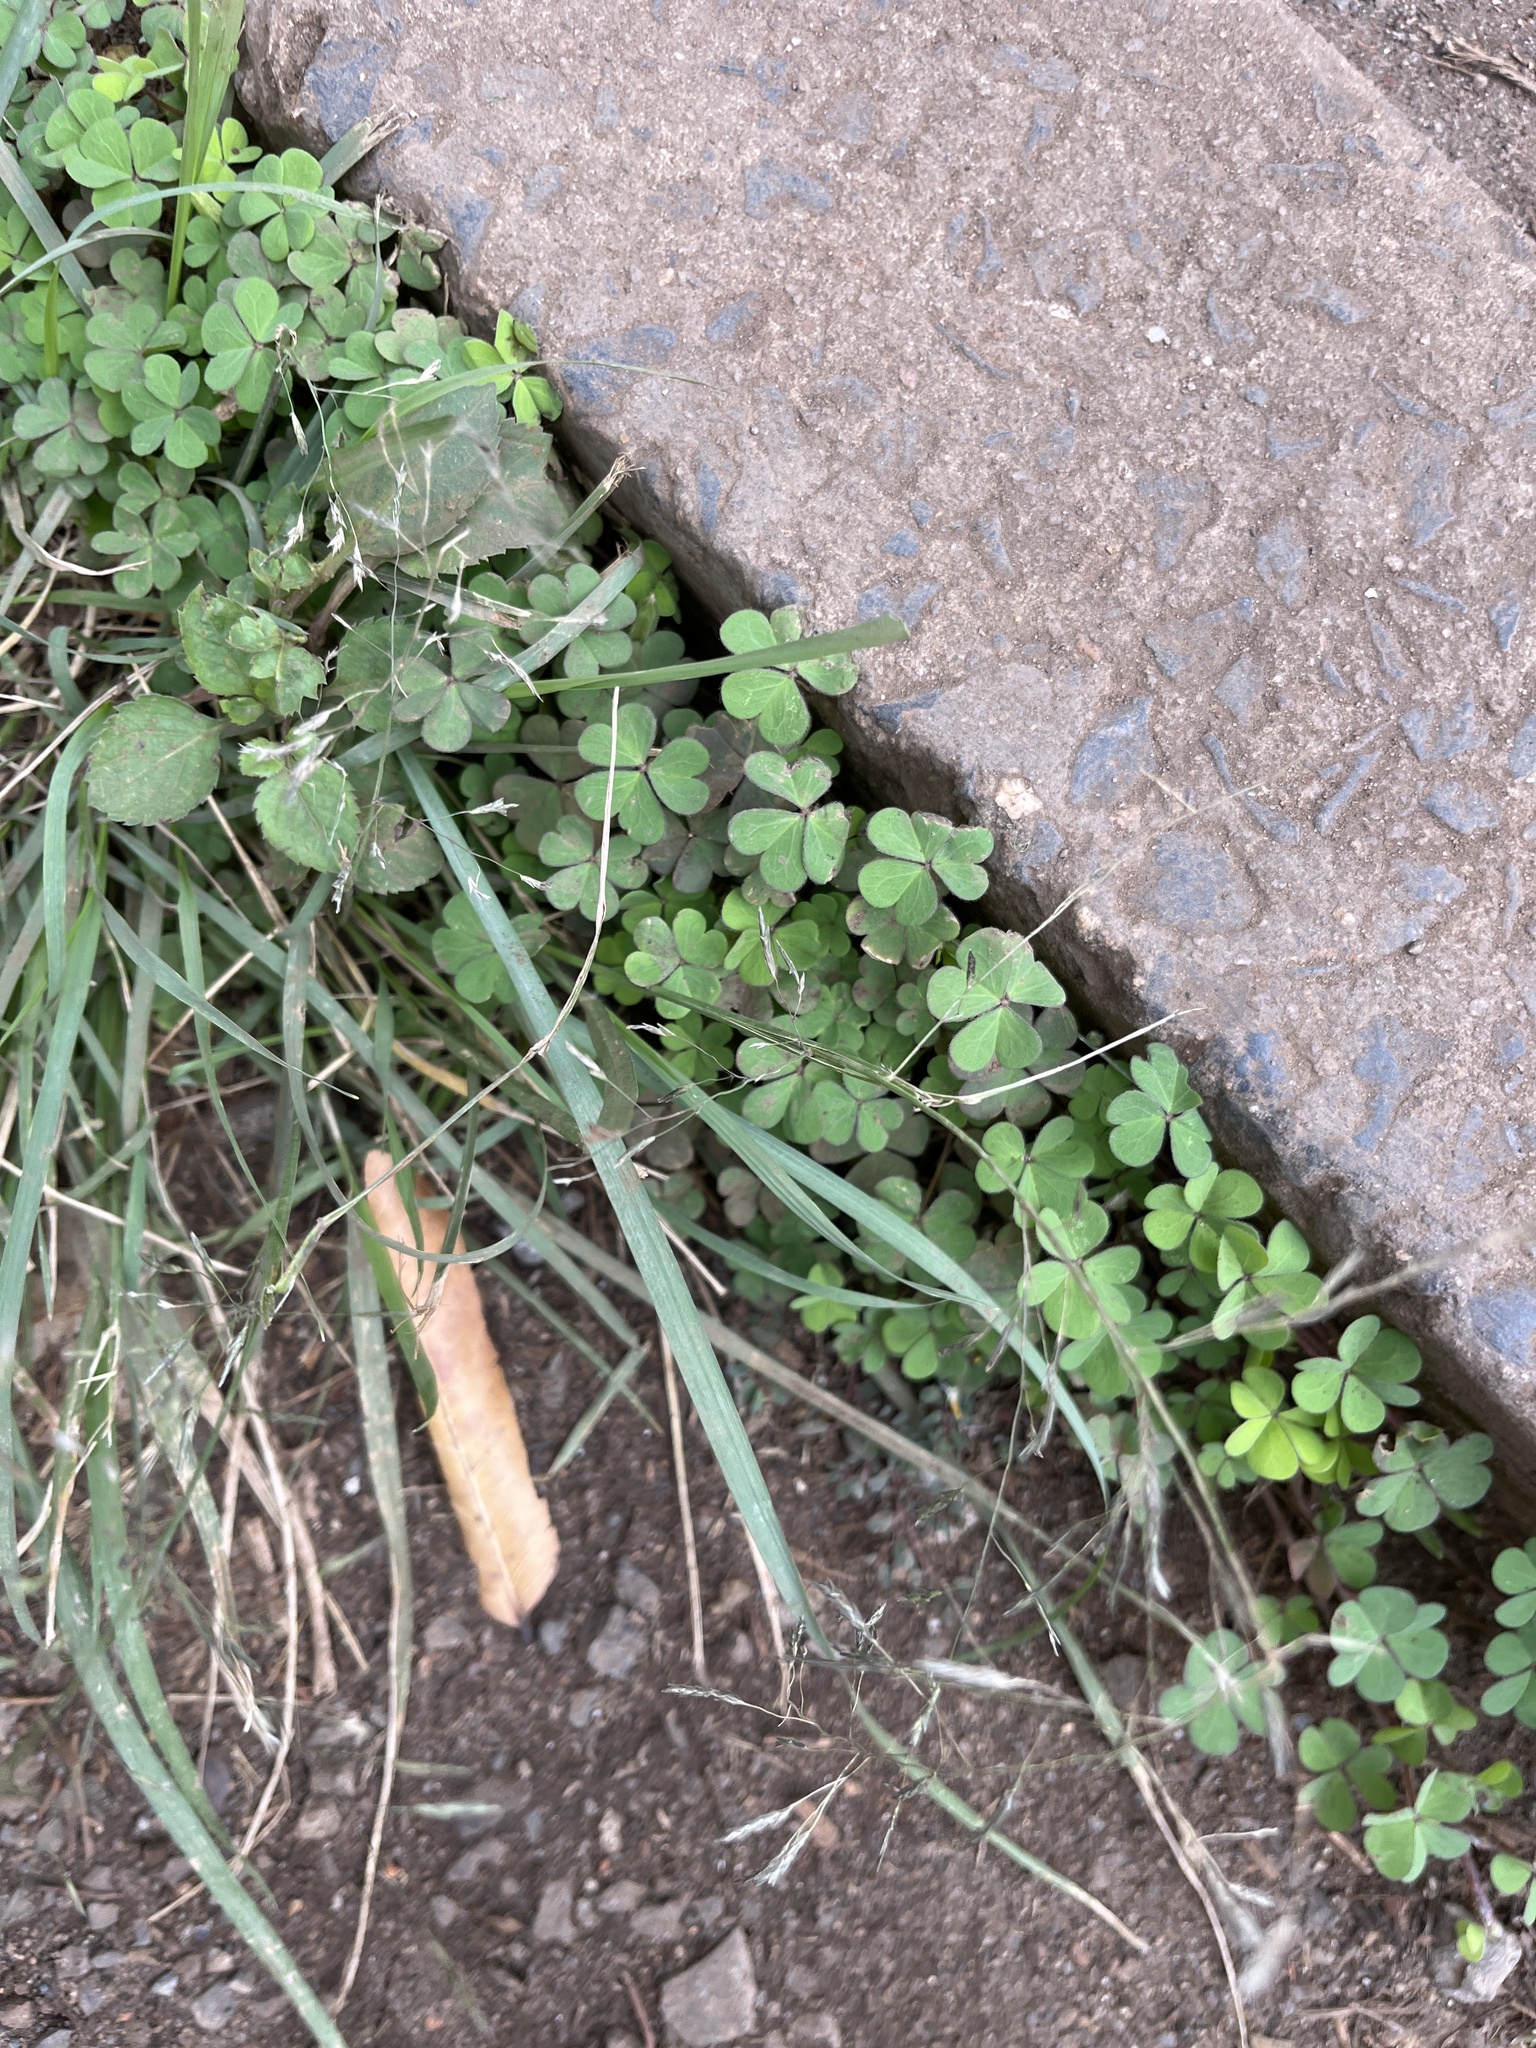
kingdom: Plantae
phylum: Tracheophyta
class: Magnoliopsida
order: Oxalidales
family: Oxalidaceae
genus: Oxalis
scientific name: Oxalis corniculata
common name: Procumbent yellow-sorrel
